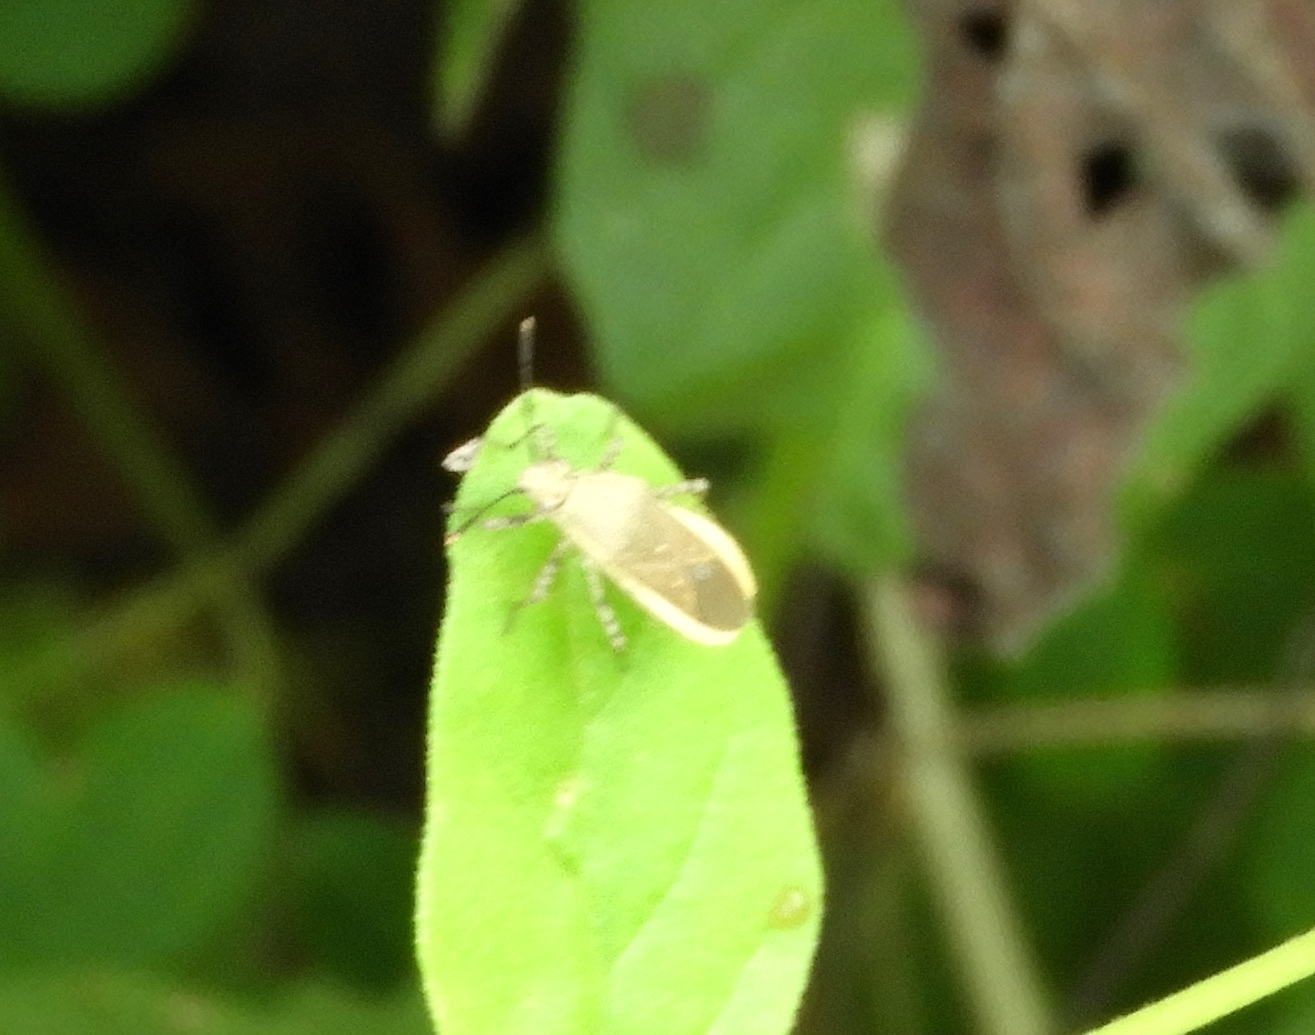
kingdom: Animalia
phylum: Arthropoda
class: Insecta
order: Hemiptera
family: Coreidae
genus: Catorhintha
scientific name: Catorhintha selector
